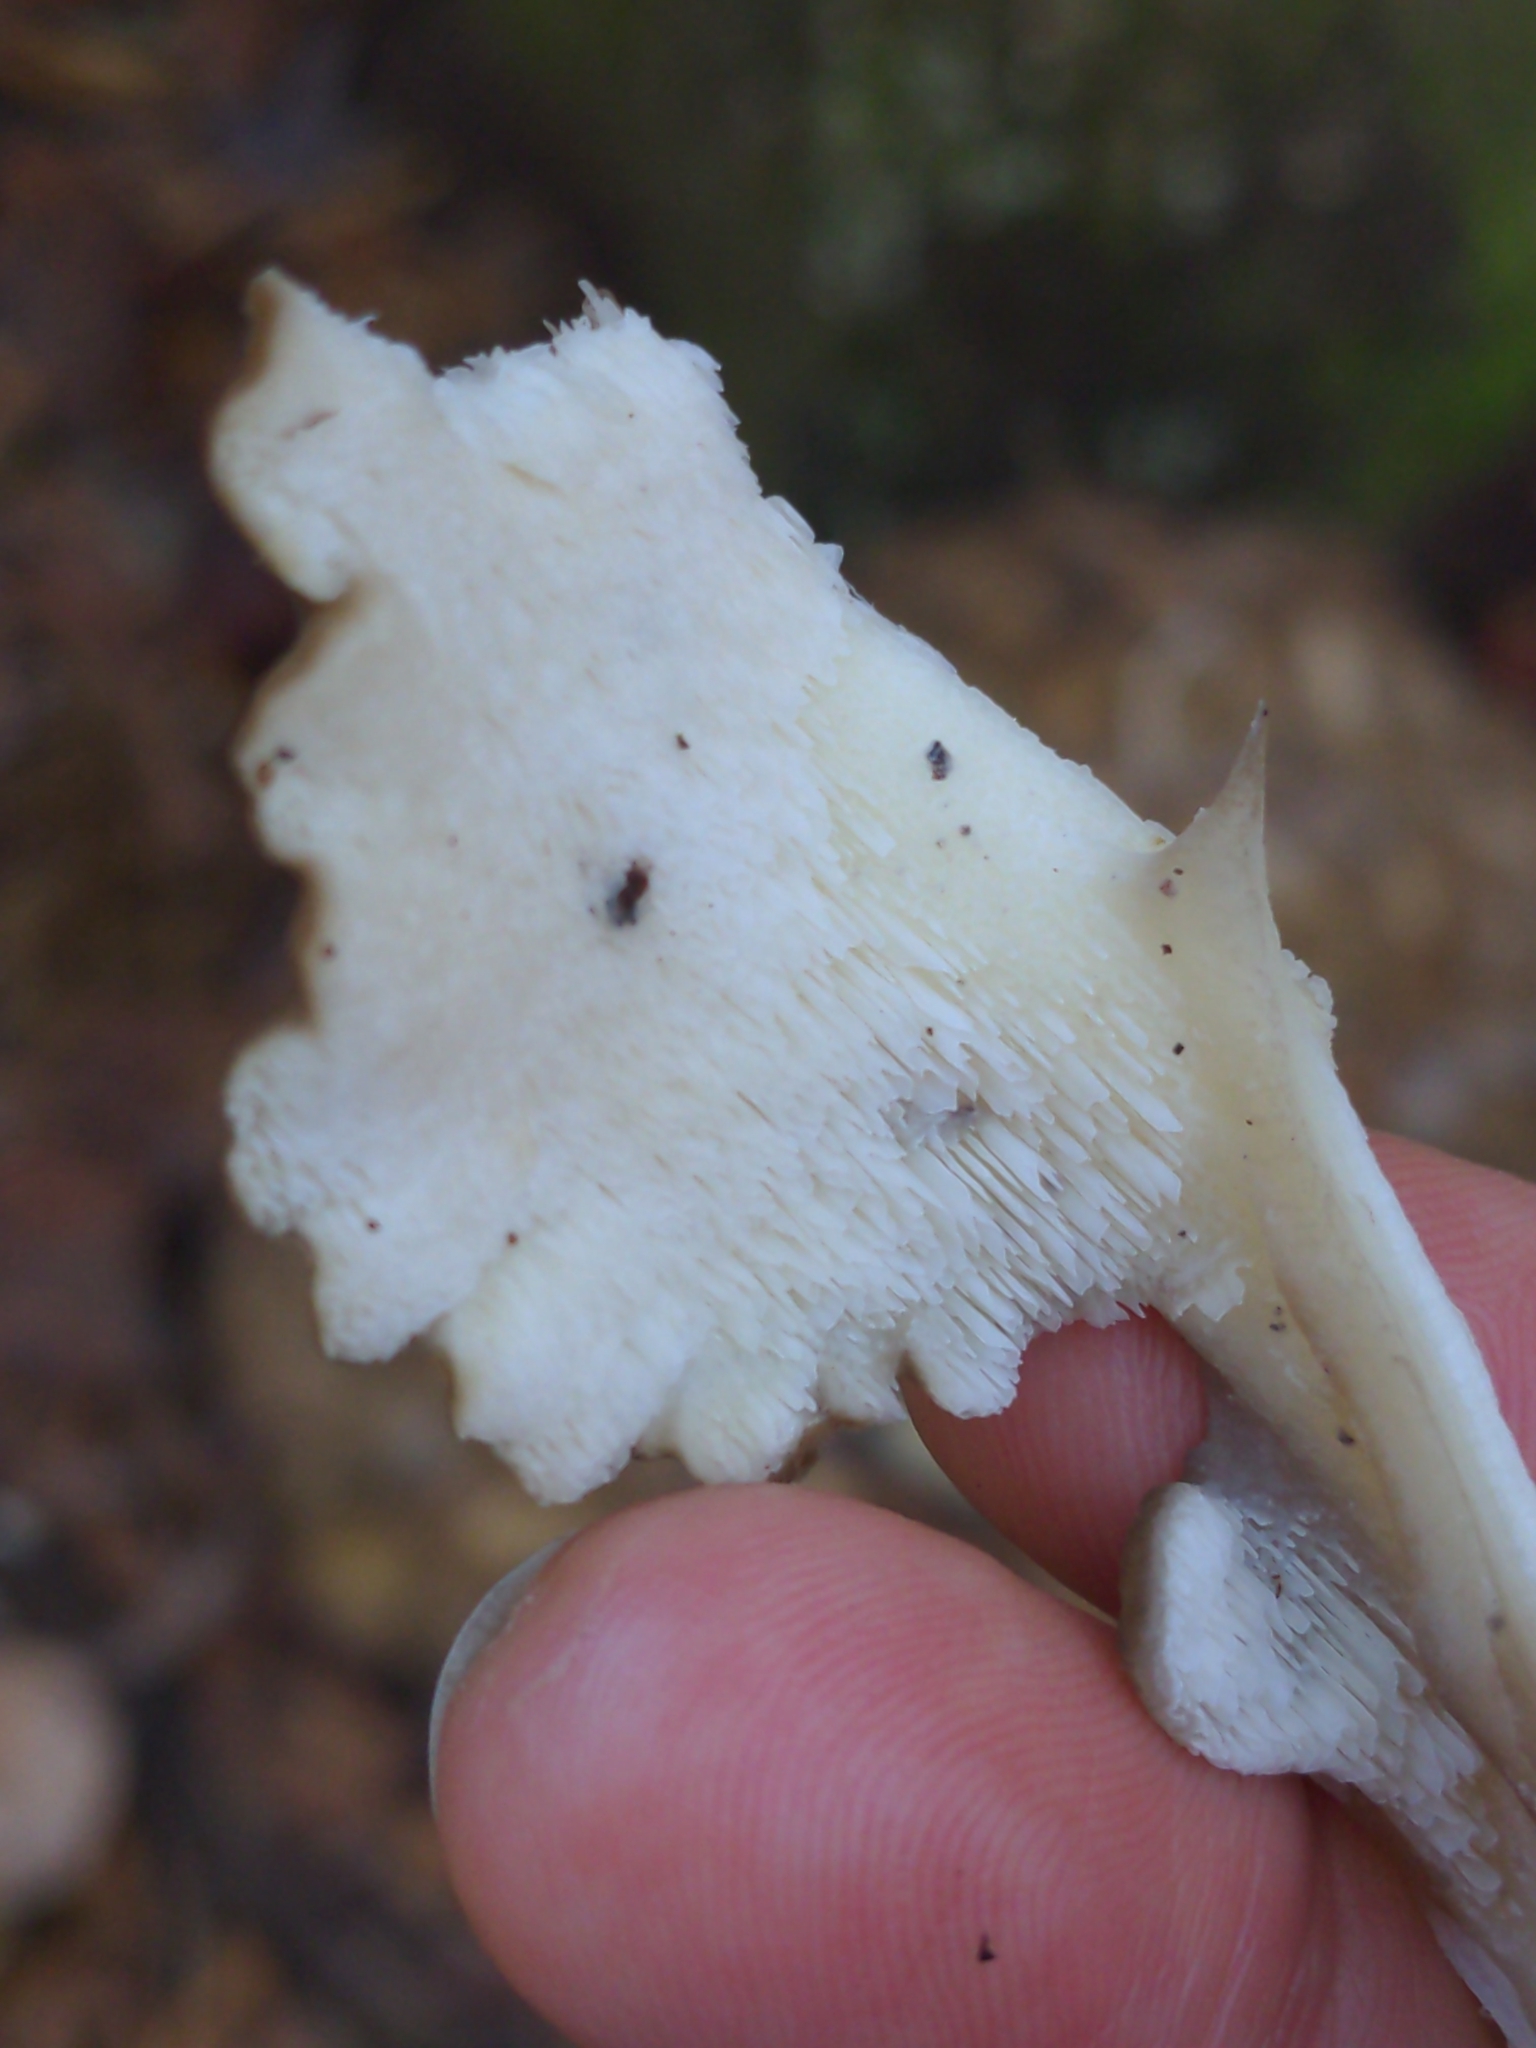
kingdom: Fungi
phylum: Basidiomycota
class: Agaricomycetes
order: Polyporales
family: Grifolaceae
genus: Grifola
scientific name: Grifola frondosa
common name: Hen of the woods
